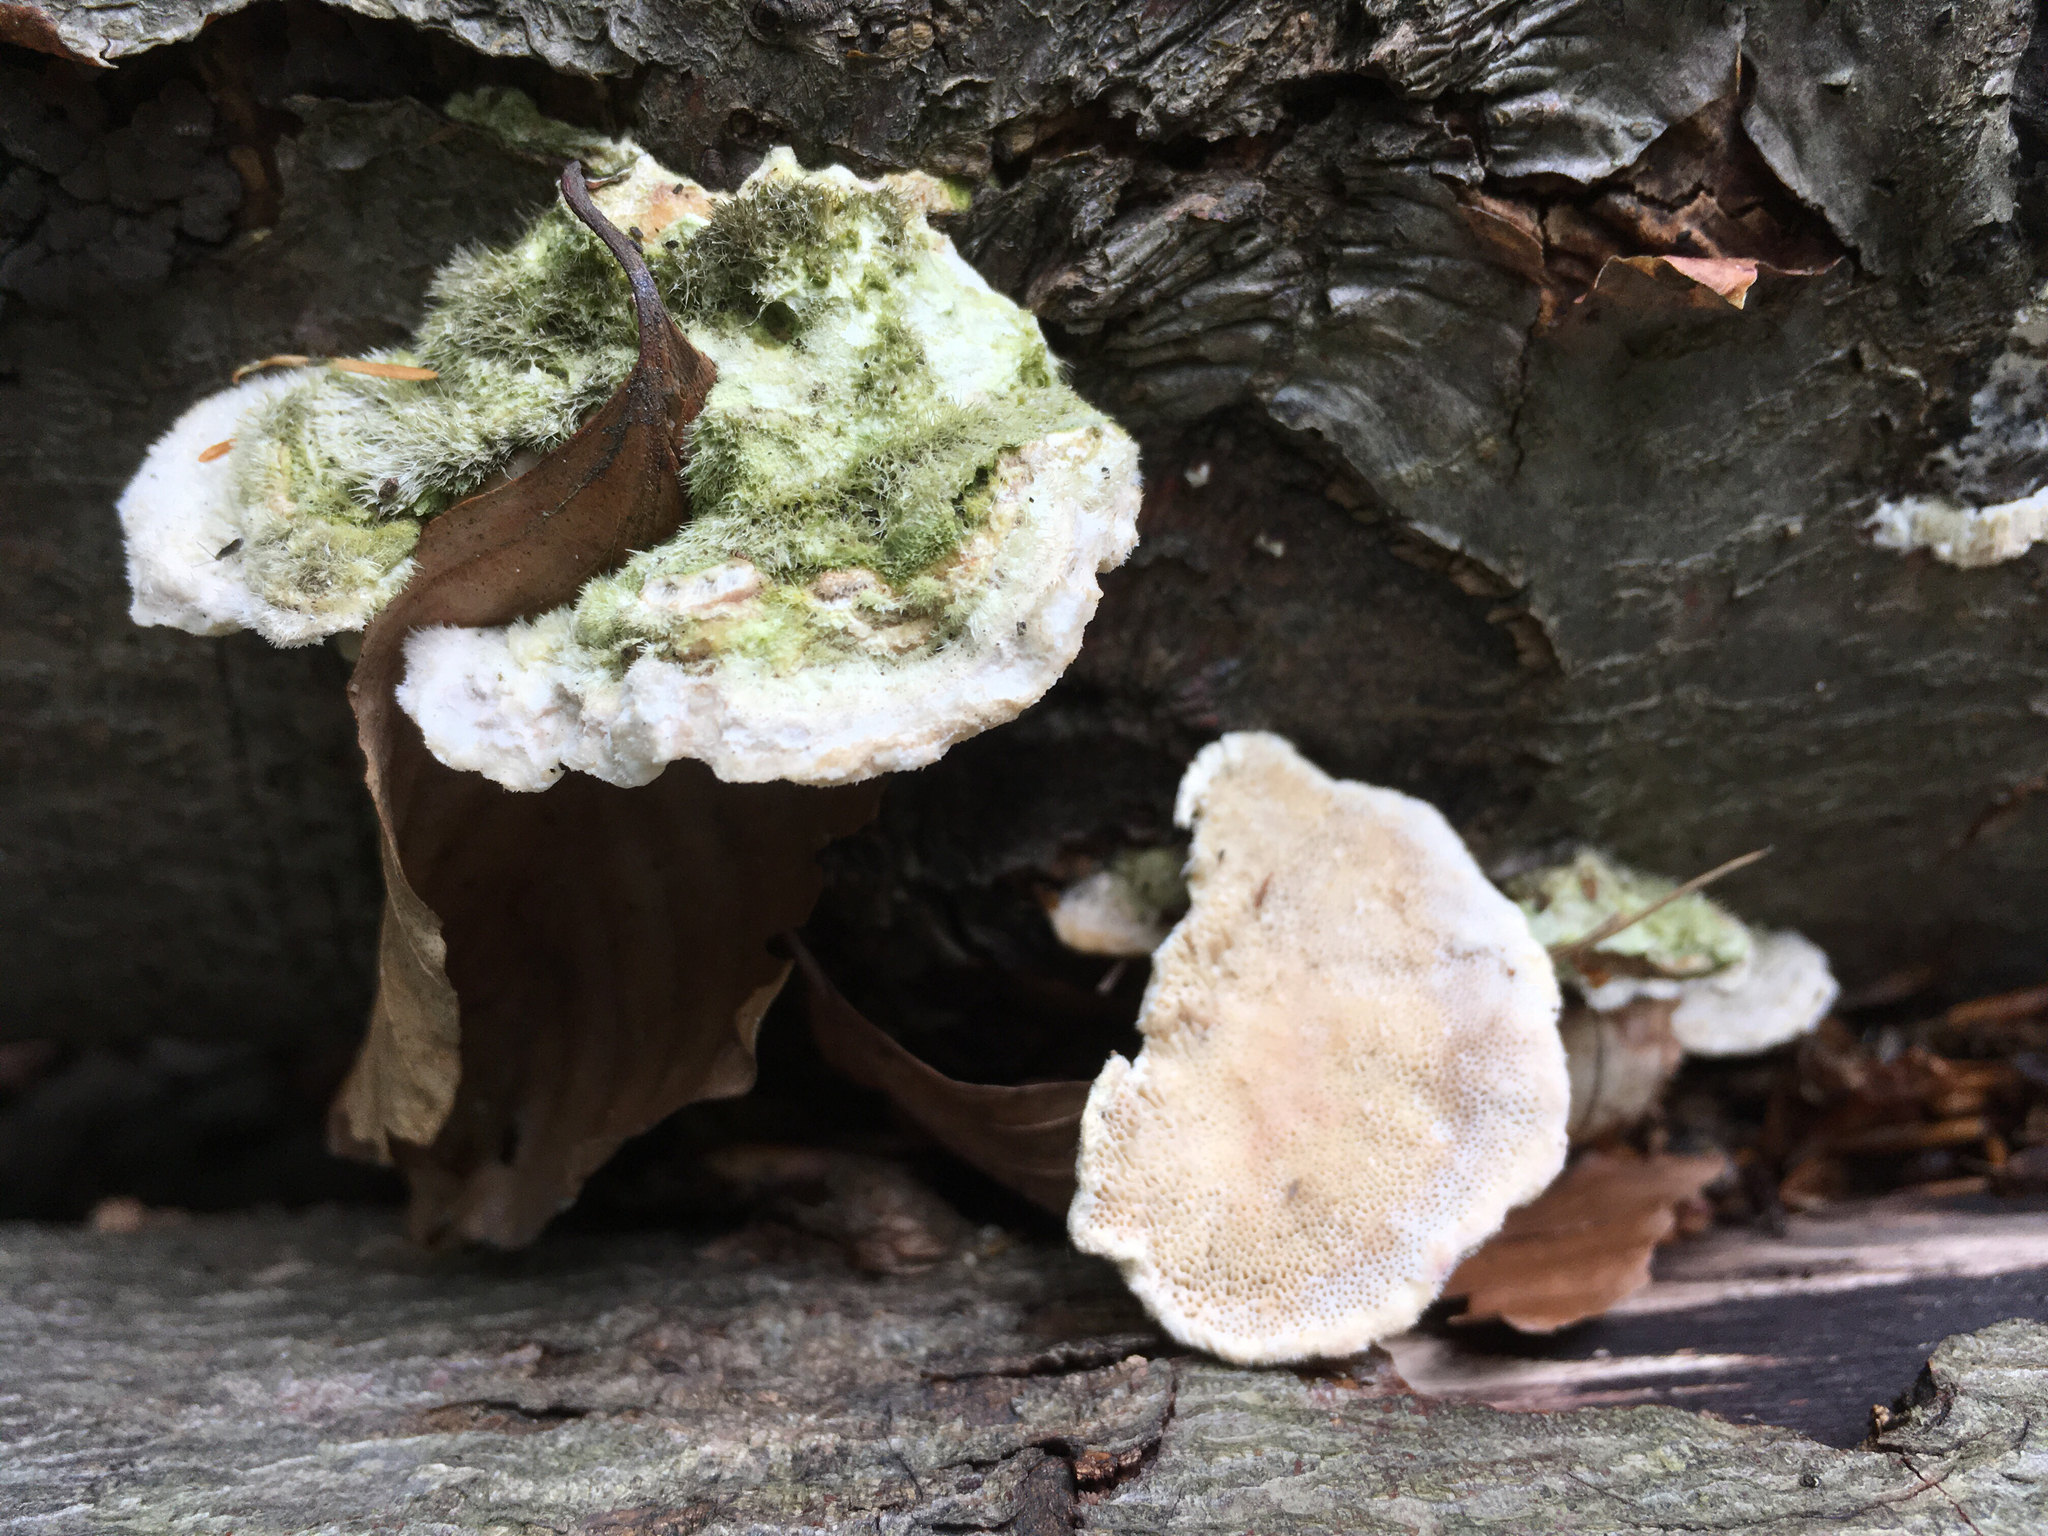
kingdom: Fungi
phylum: Basidiomycota
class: Agaricomycetes
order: Polyporales
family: Polyporaceae
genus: Trametes
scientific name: Trametes hirsuta
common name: Hairy bracket
